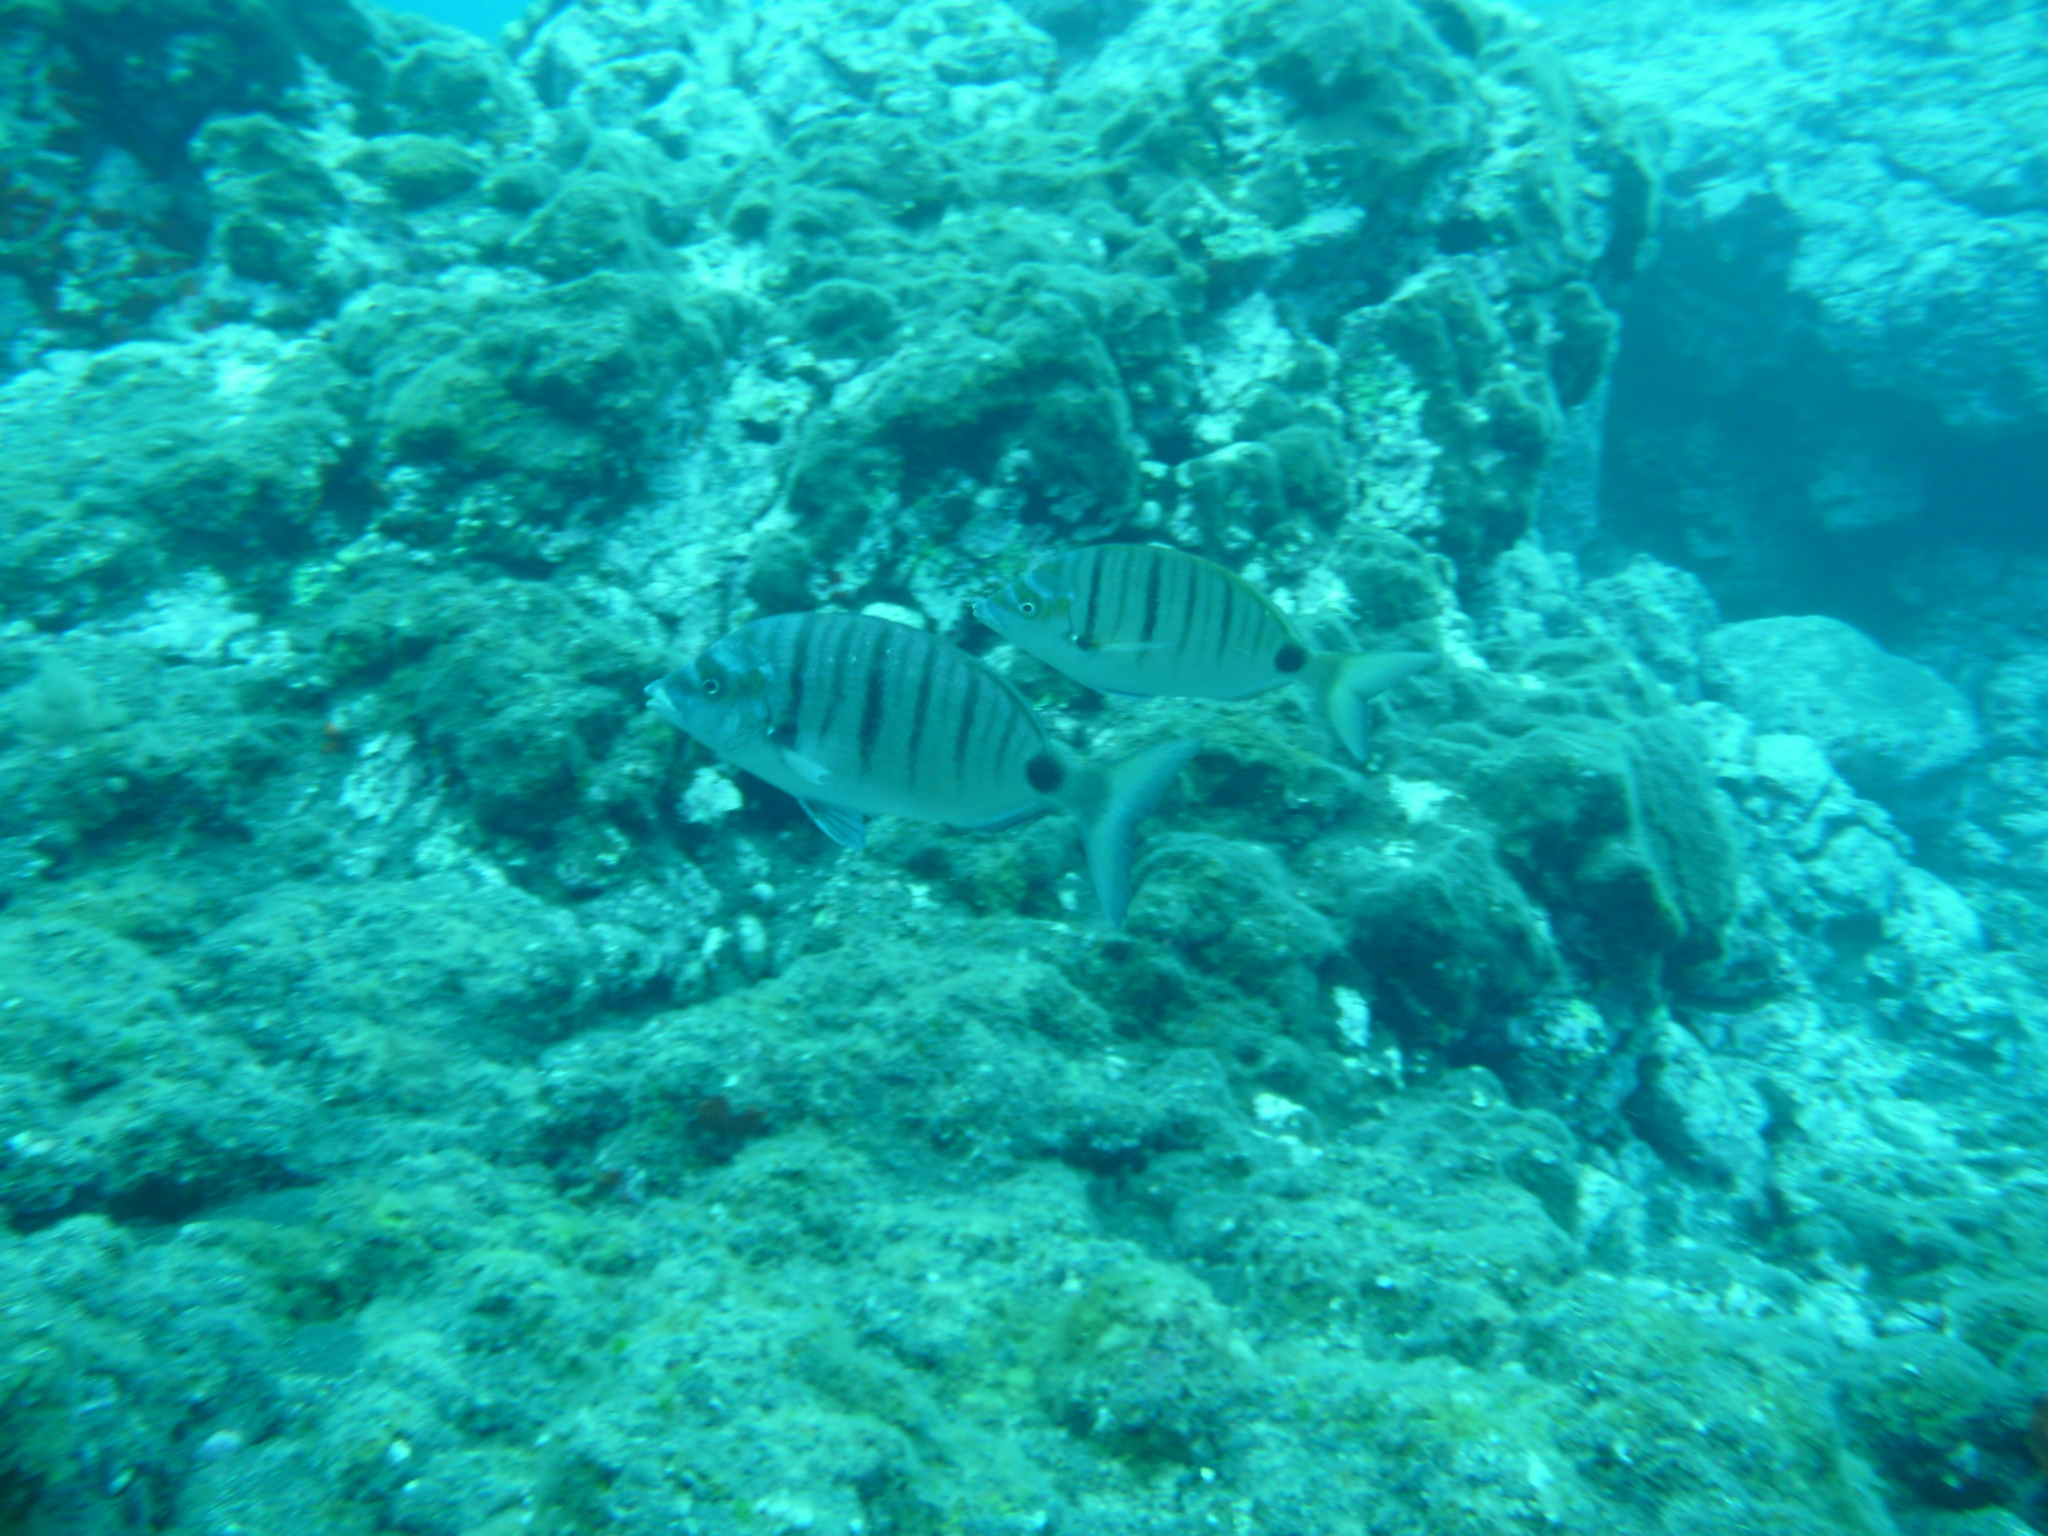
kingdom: Animalia
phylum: Chordata
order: Perciformes
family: Sparidae
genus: Diplodus
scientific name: Diplodus puntazzo
